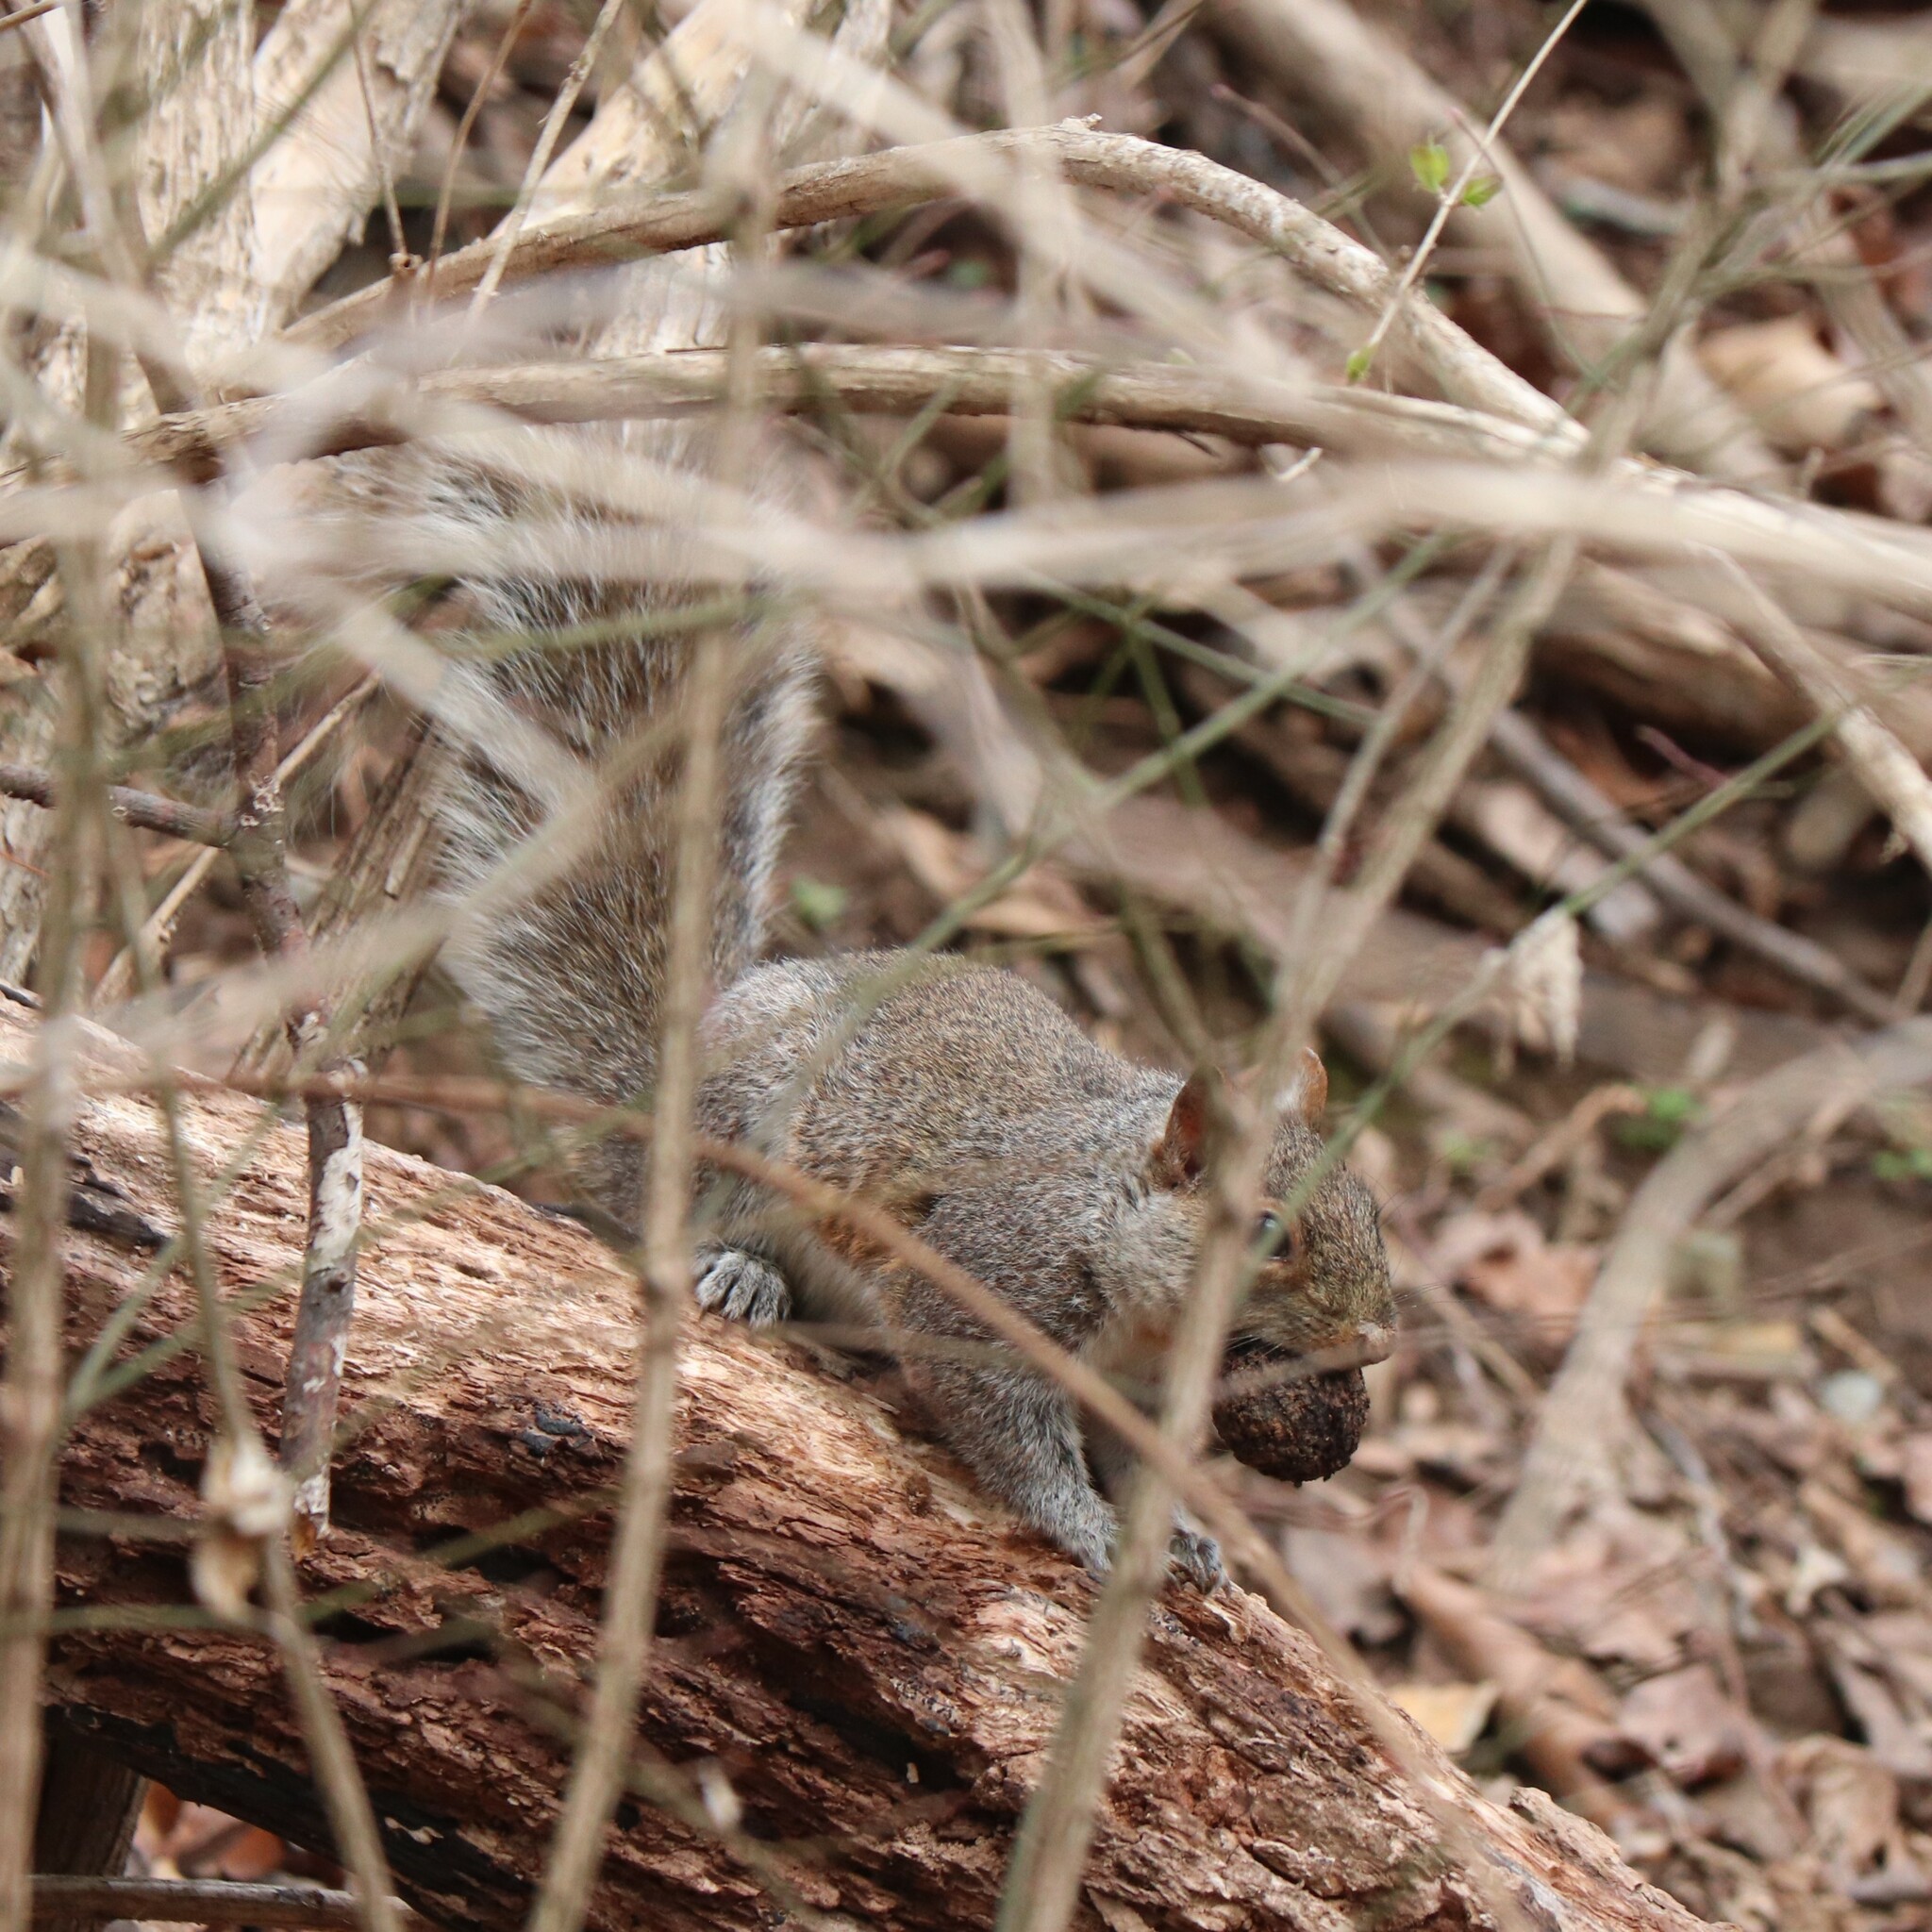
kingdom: Animalia
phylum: Chordata
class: Mammalia
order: Rodentia
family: Sciuridae
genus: Sciurus
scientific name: Sciurus carolinensis
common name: Eastern gray squirrel
